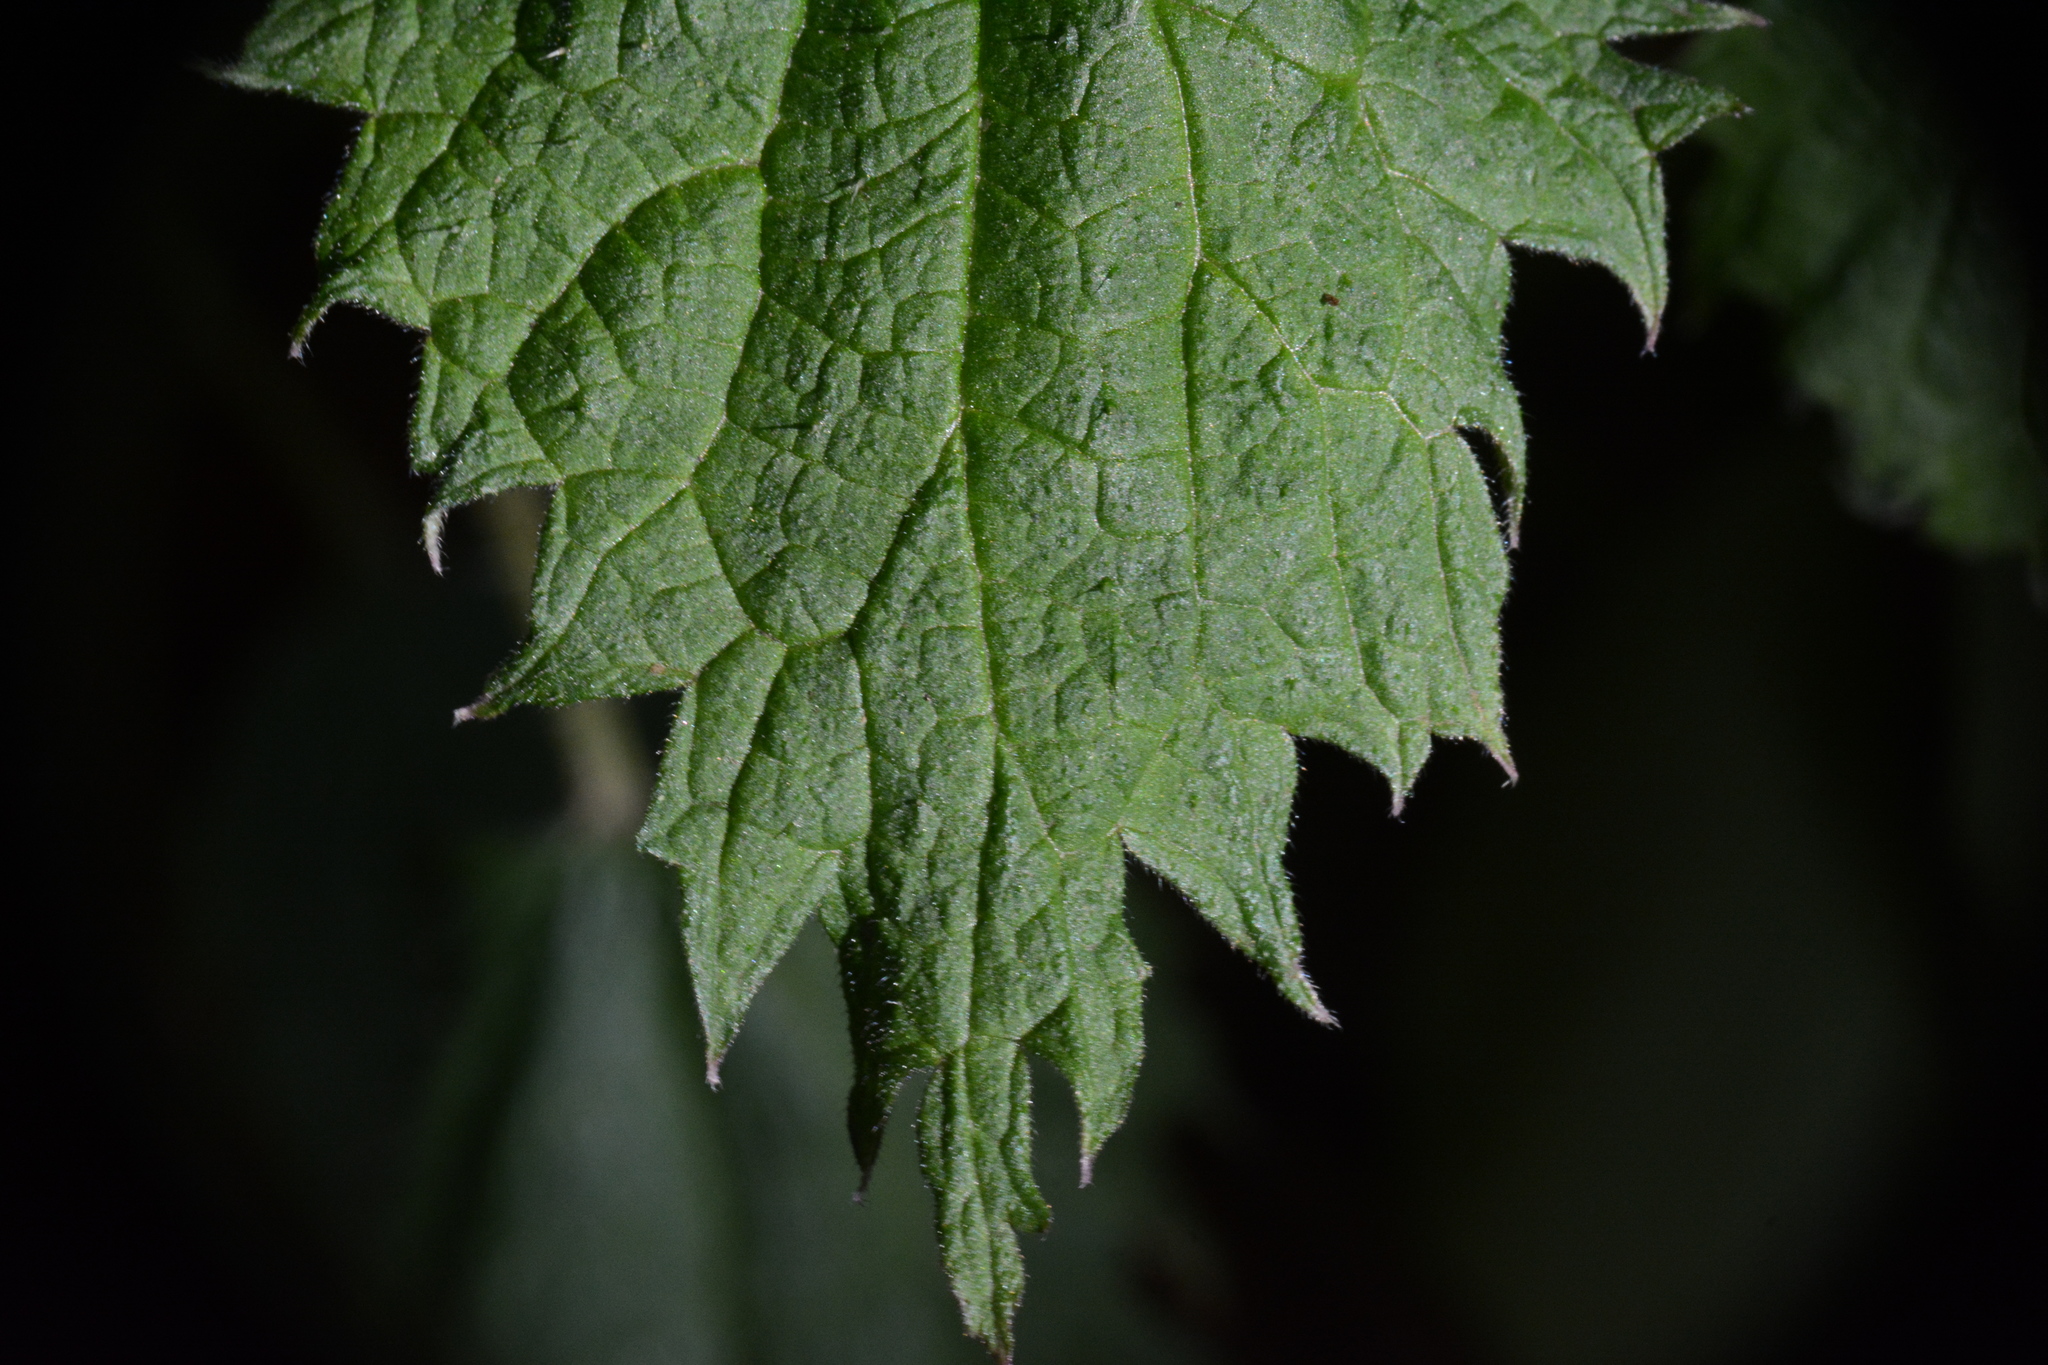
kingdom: Plantae
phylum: Tracheophyta
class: Magnoliopsida
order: Rosales
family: Urticaceae
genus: Urtica
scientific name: Urtica dioica
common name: Common nettle
